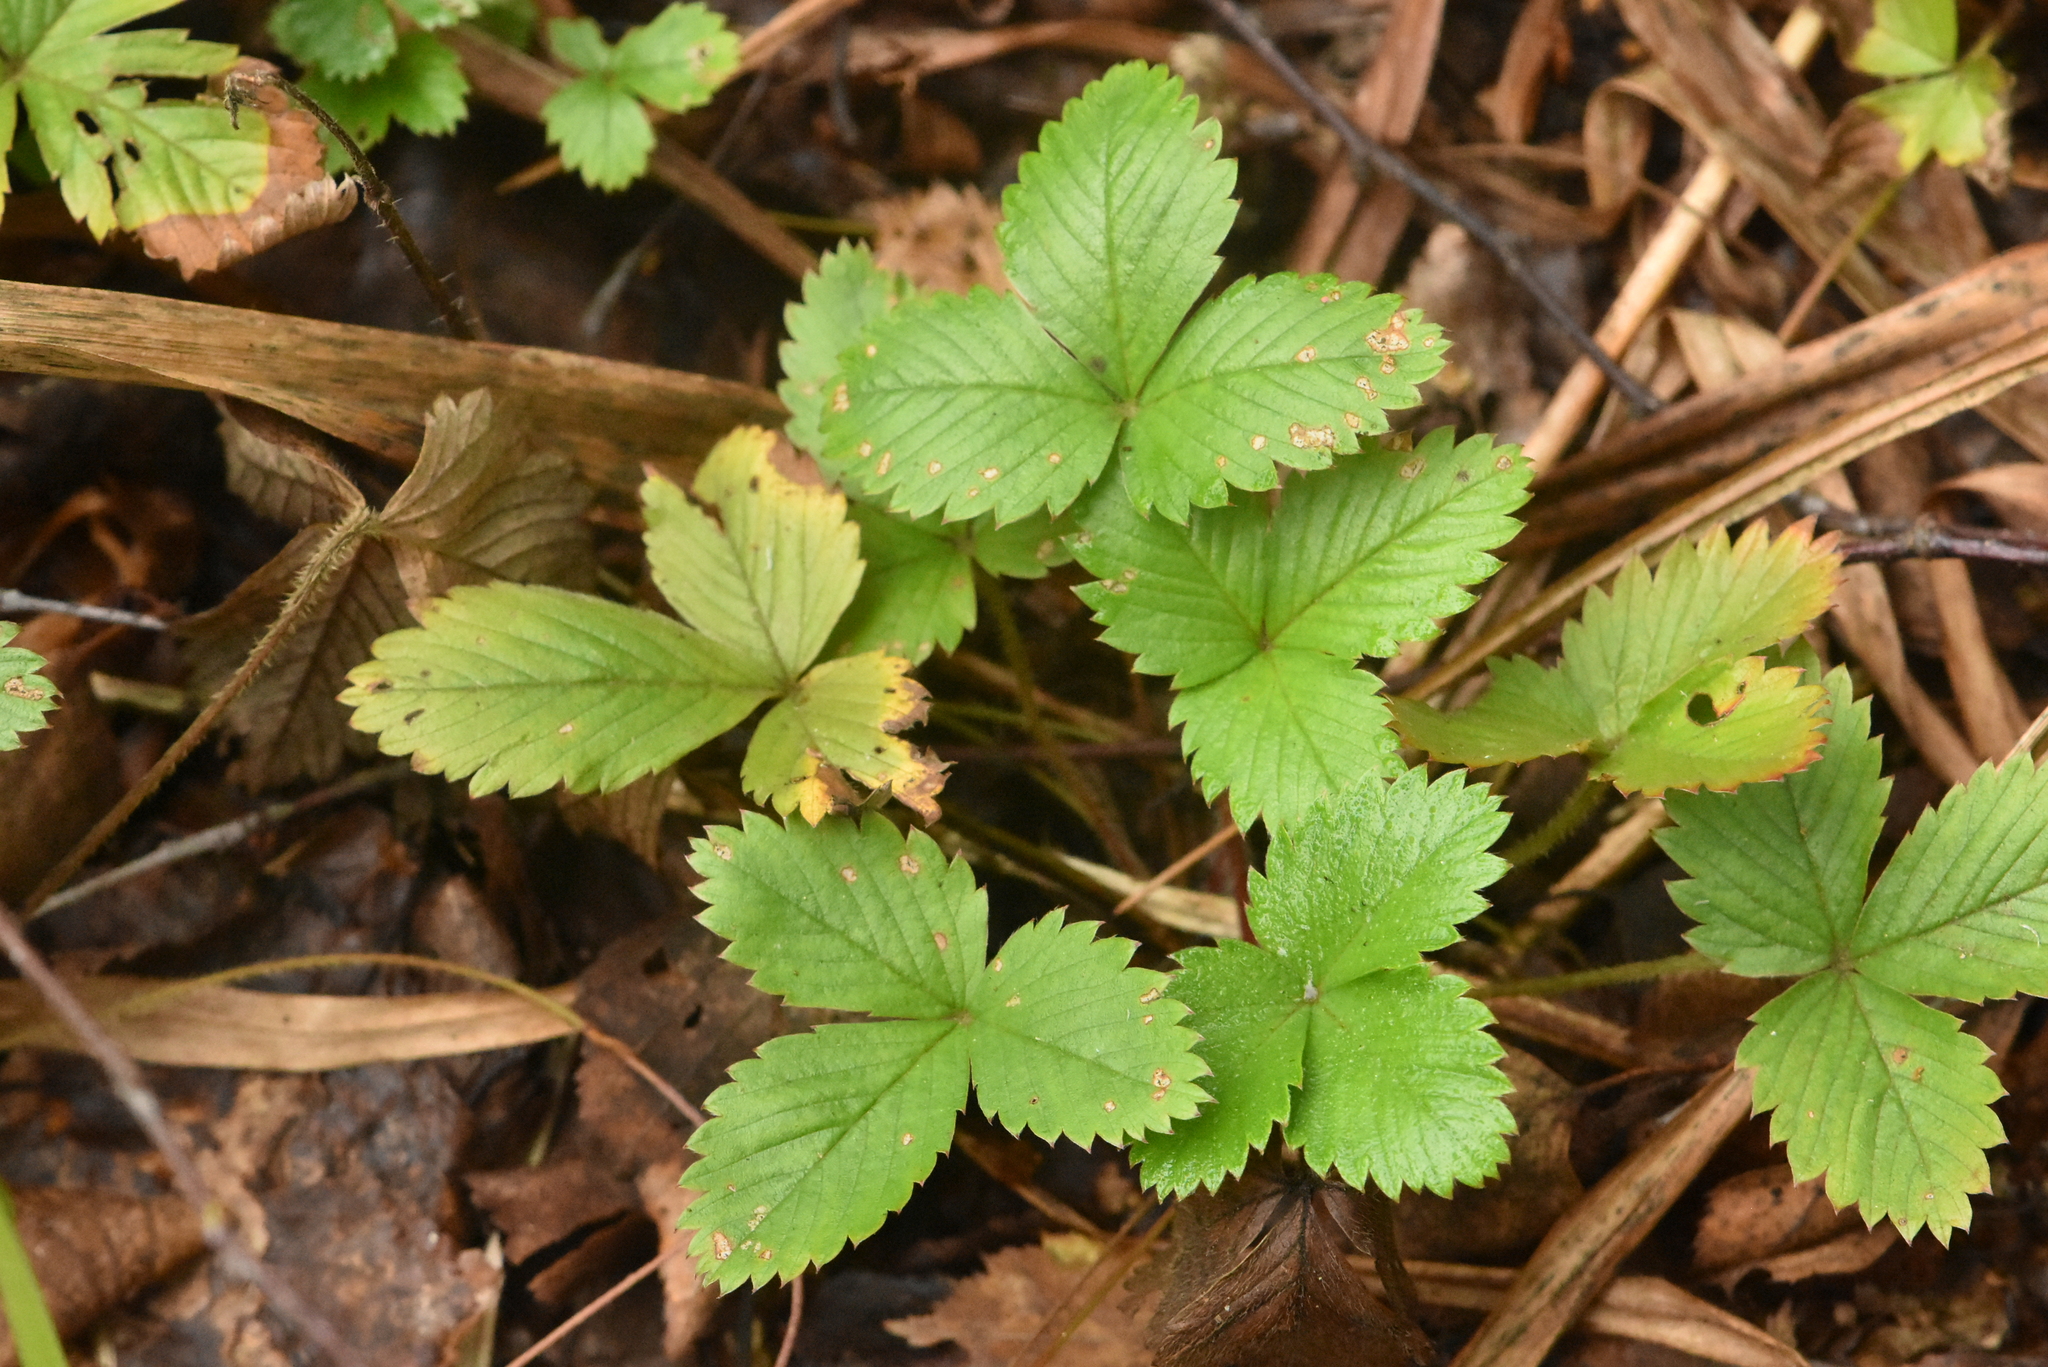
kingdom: Plantae
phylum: Tracheophyta
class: Magnoliopsida
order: Rosales
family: Rosaceae
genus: Fragaria
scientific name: Fragaria vesca
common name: Wild strawberry
